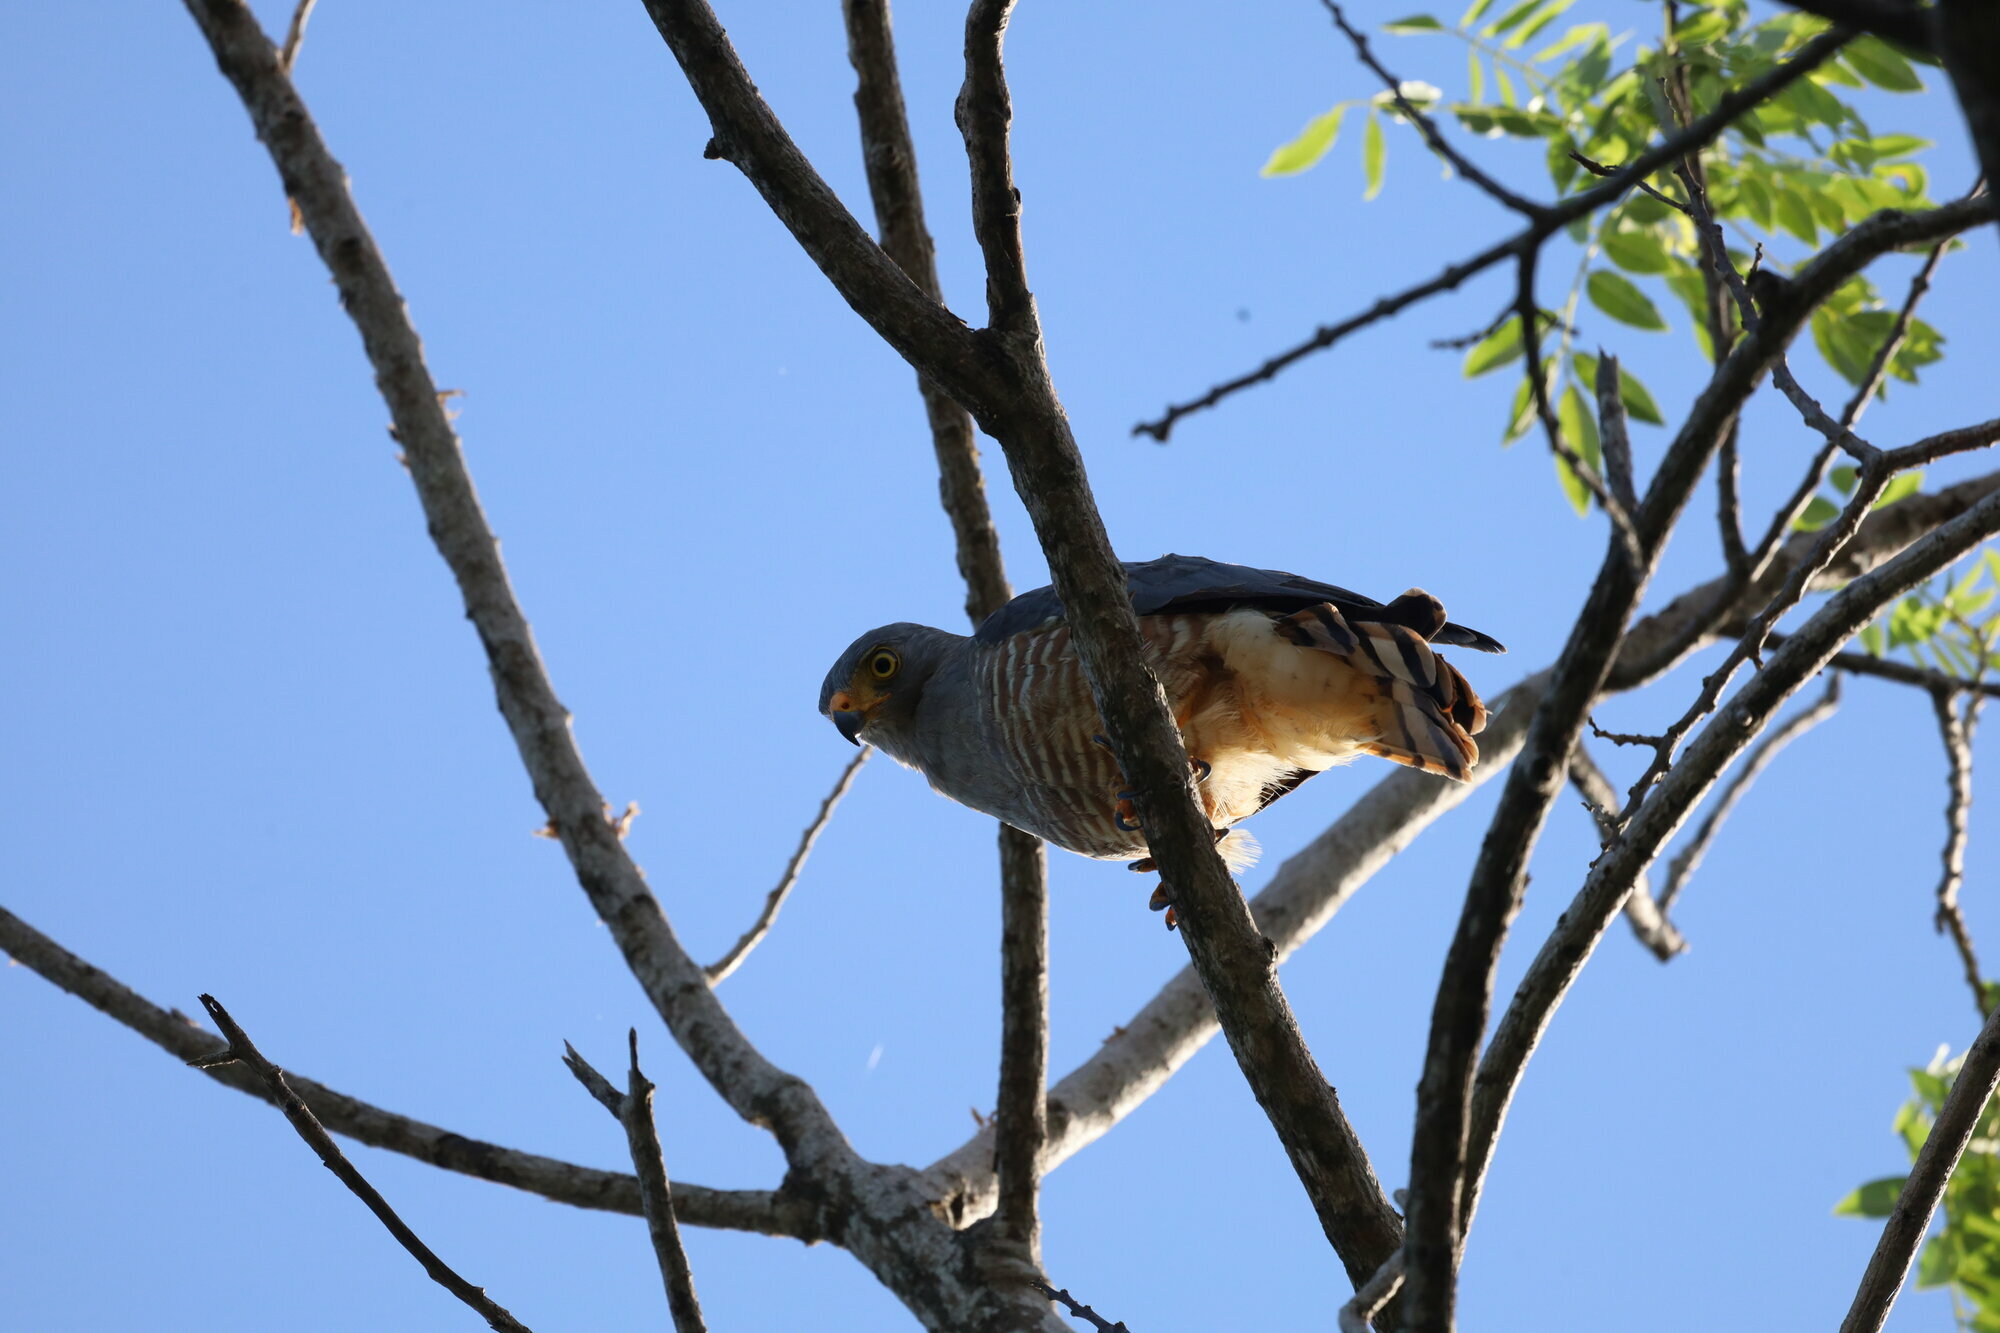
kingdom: Animalia
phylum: Chordata
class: Aves
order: Accipitriformes
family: Accipitridae
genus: Rupornis
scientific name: Rupornis magnirostris
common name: Roadside hawk
